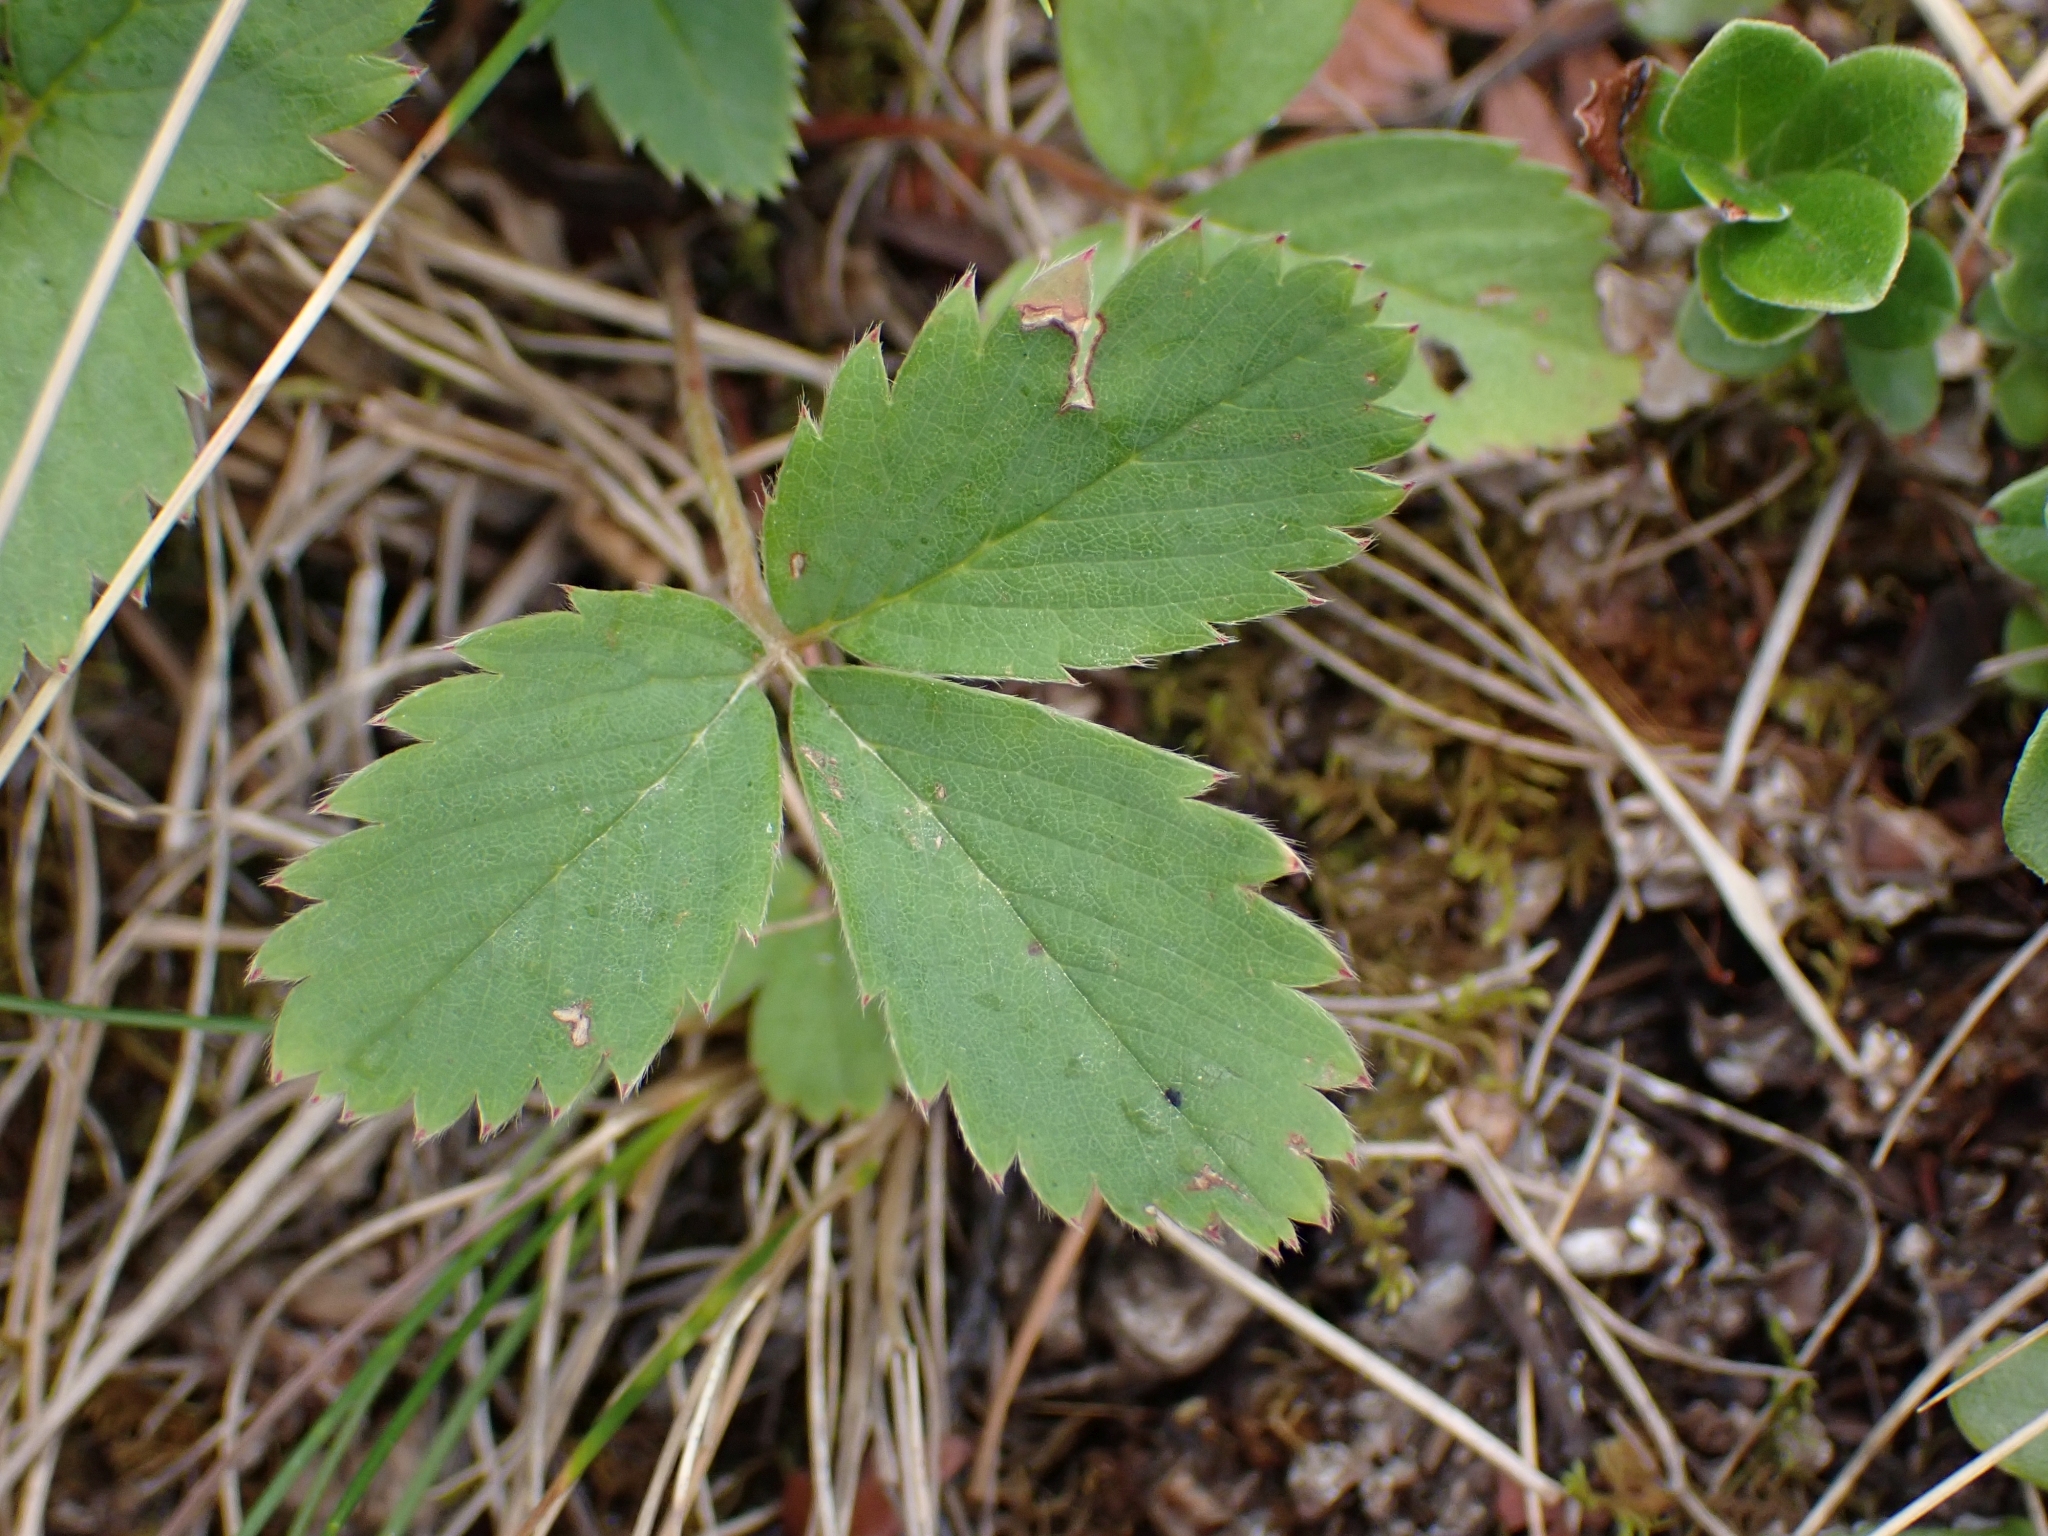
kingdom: Plantae
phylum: Tracheophyta
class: Magnoliopsida
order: Rosales
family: Rosaceae
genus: Fragaria
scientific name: Fragaria virginiana
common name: Thickleaved wild strawberry
